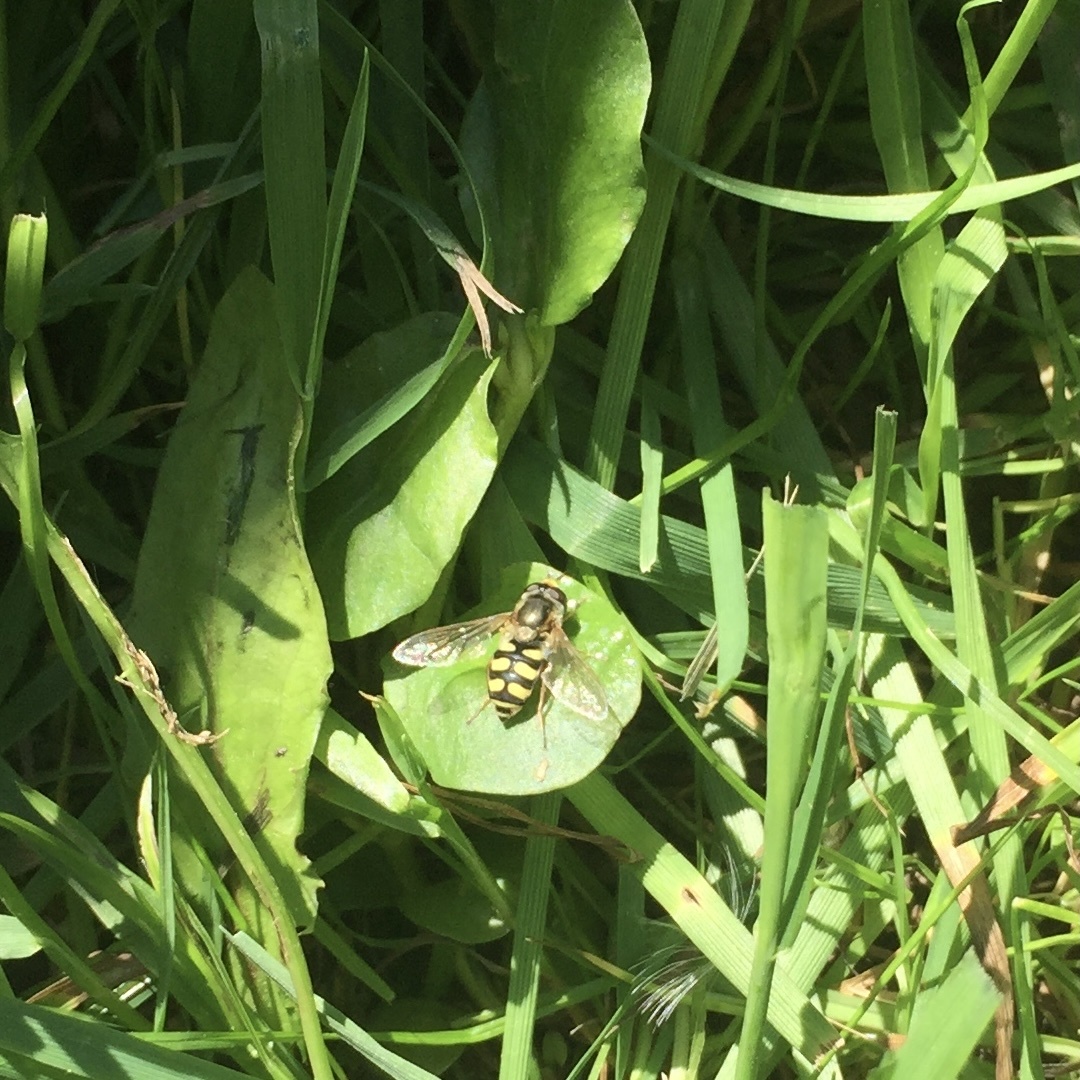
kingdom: Animalia
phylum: Arthropoda
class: Insecta
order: Diptera
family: Syrphidae
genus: Eupeodes
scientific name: Eupeodes corollae
